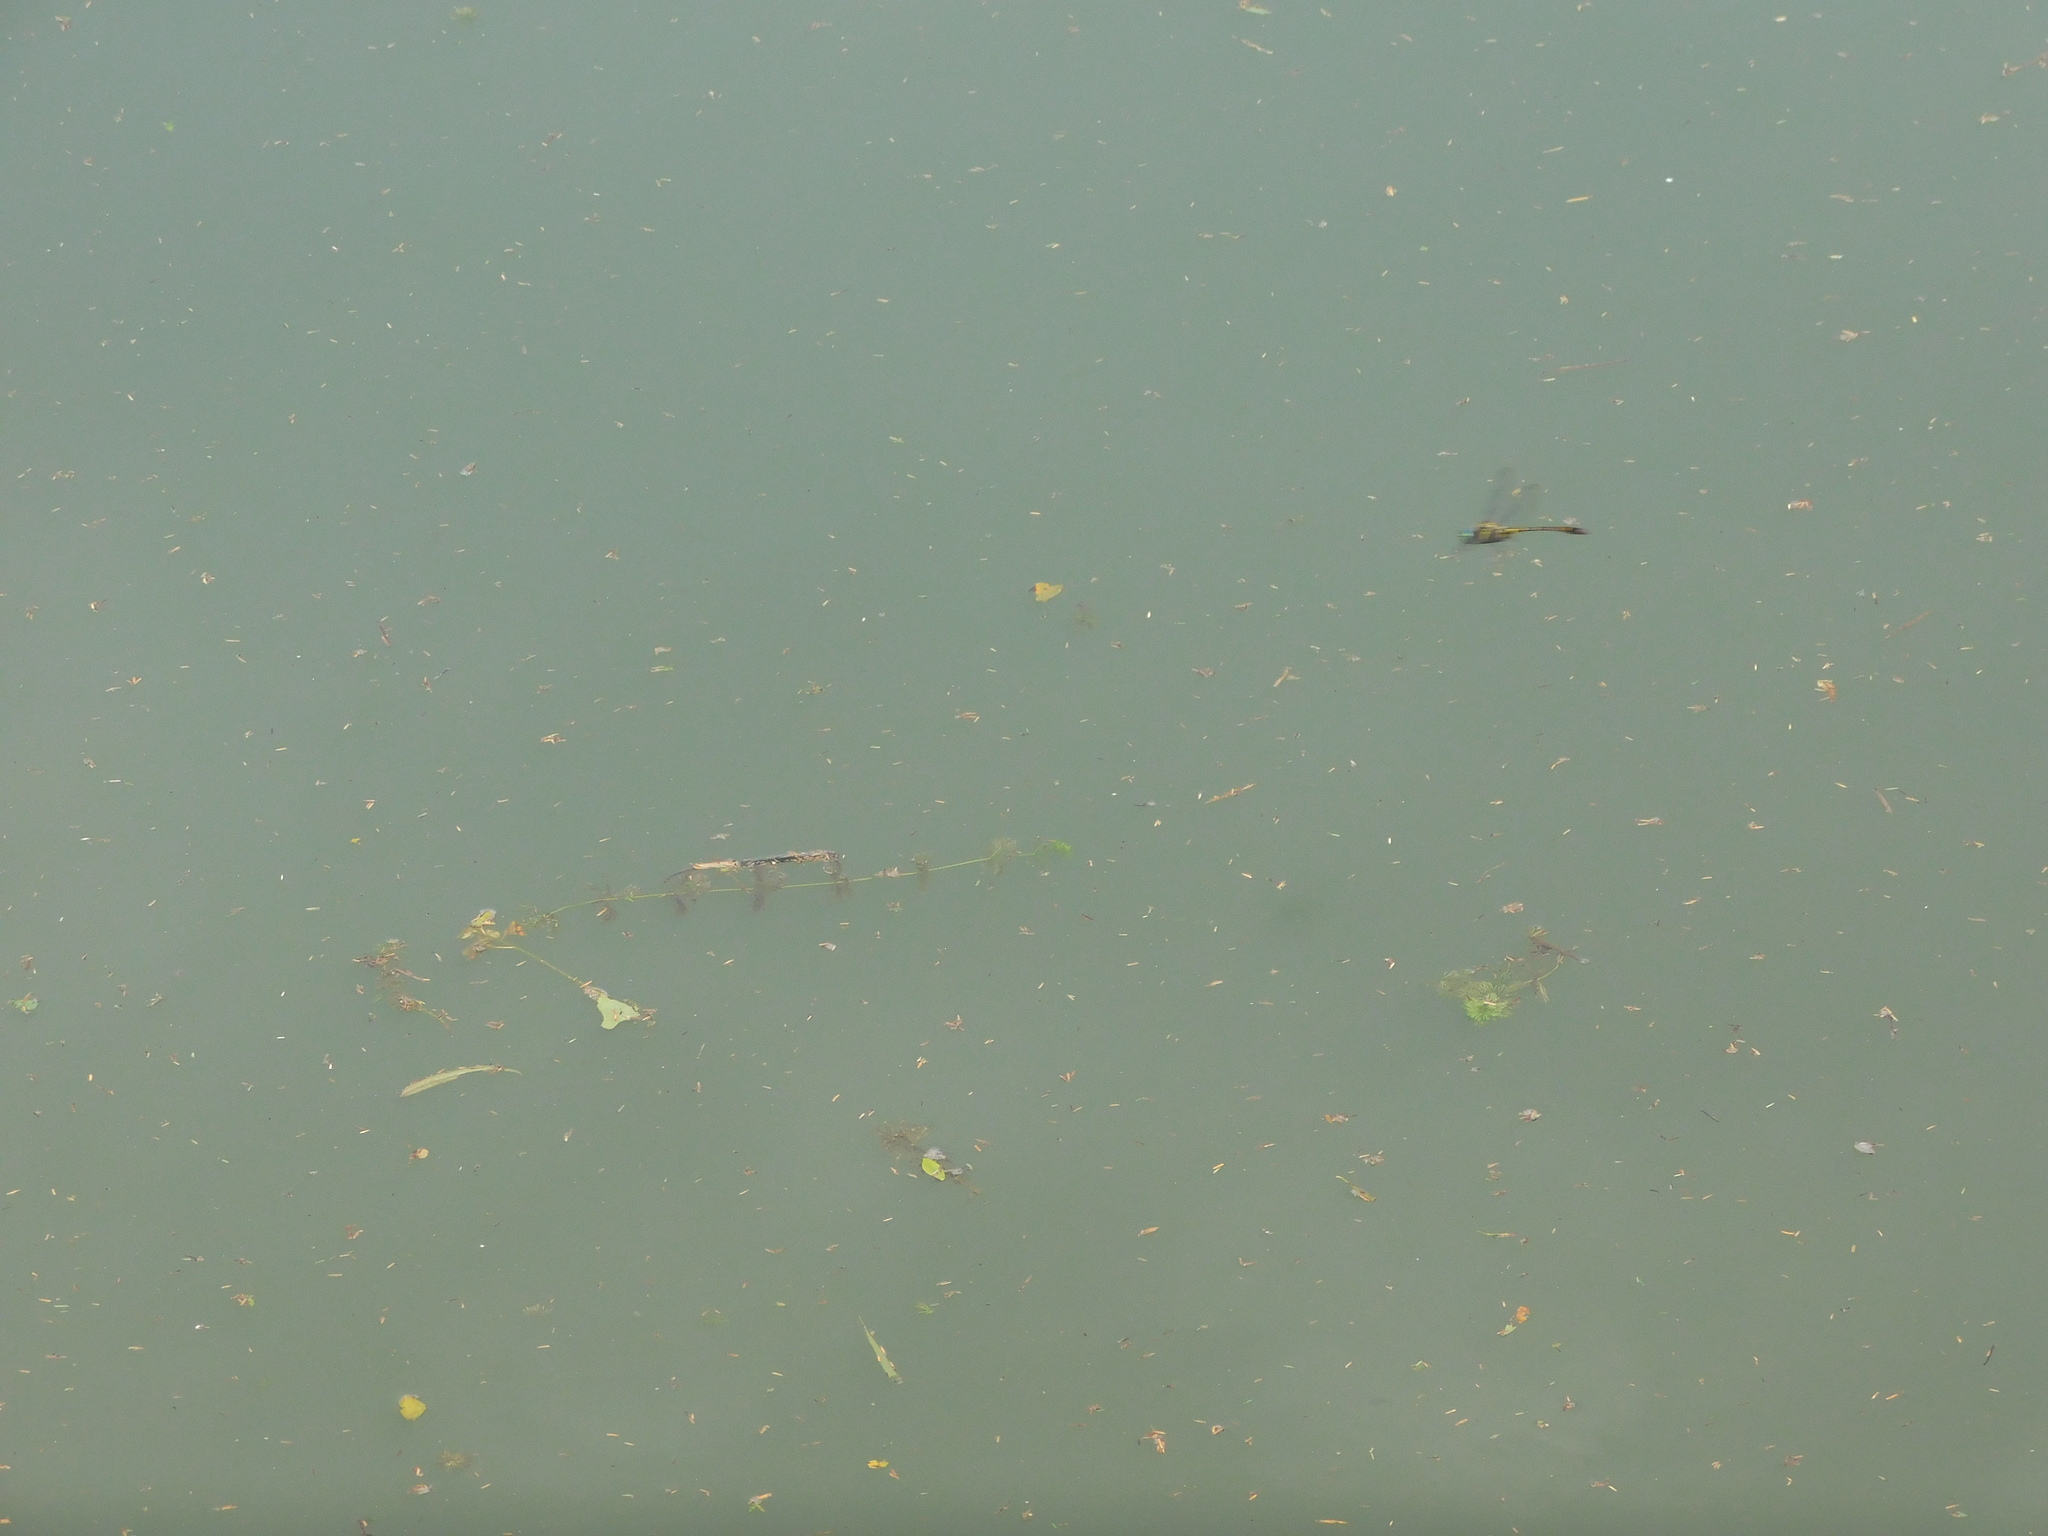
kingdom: Animalia
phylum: Arthropoda
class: Insecta
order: Odonata
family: Gomphidae
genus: Ictinogomphus
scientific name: Ictinogomphus decoratus
